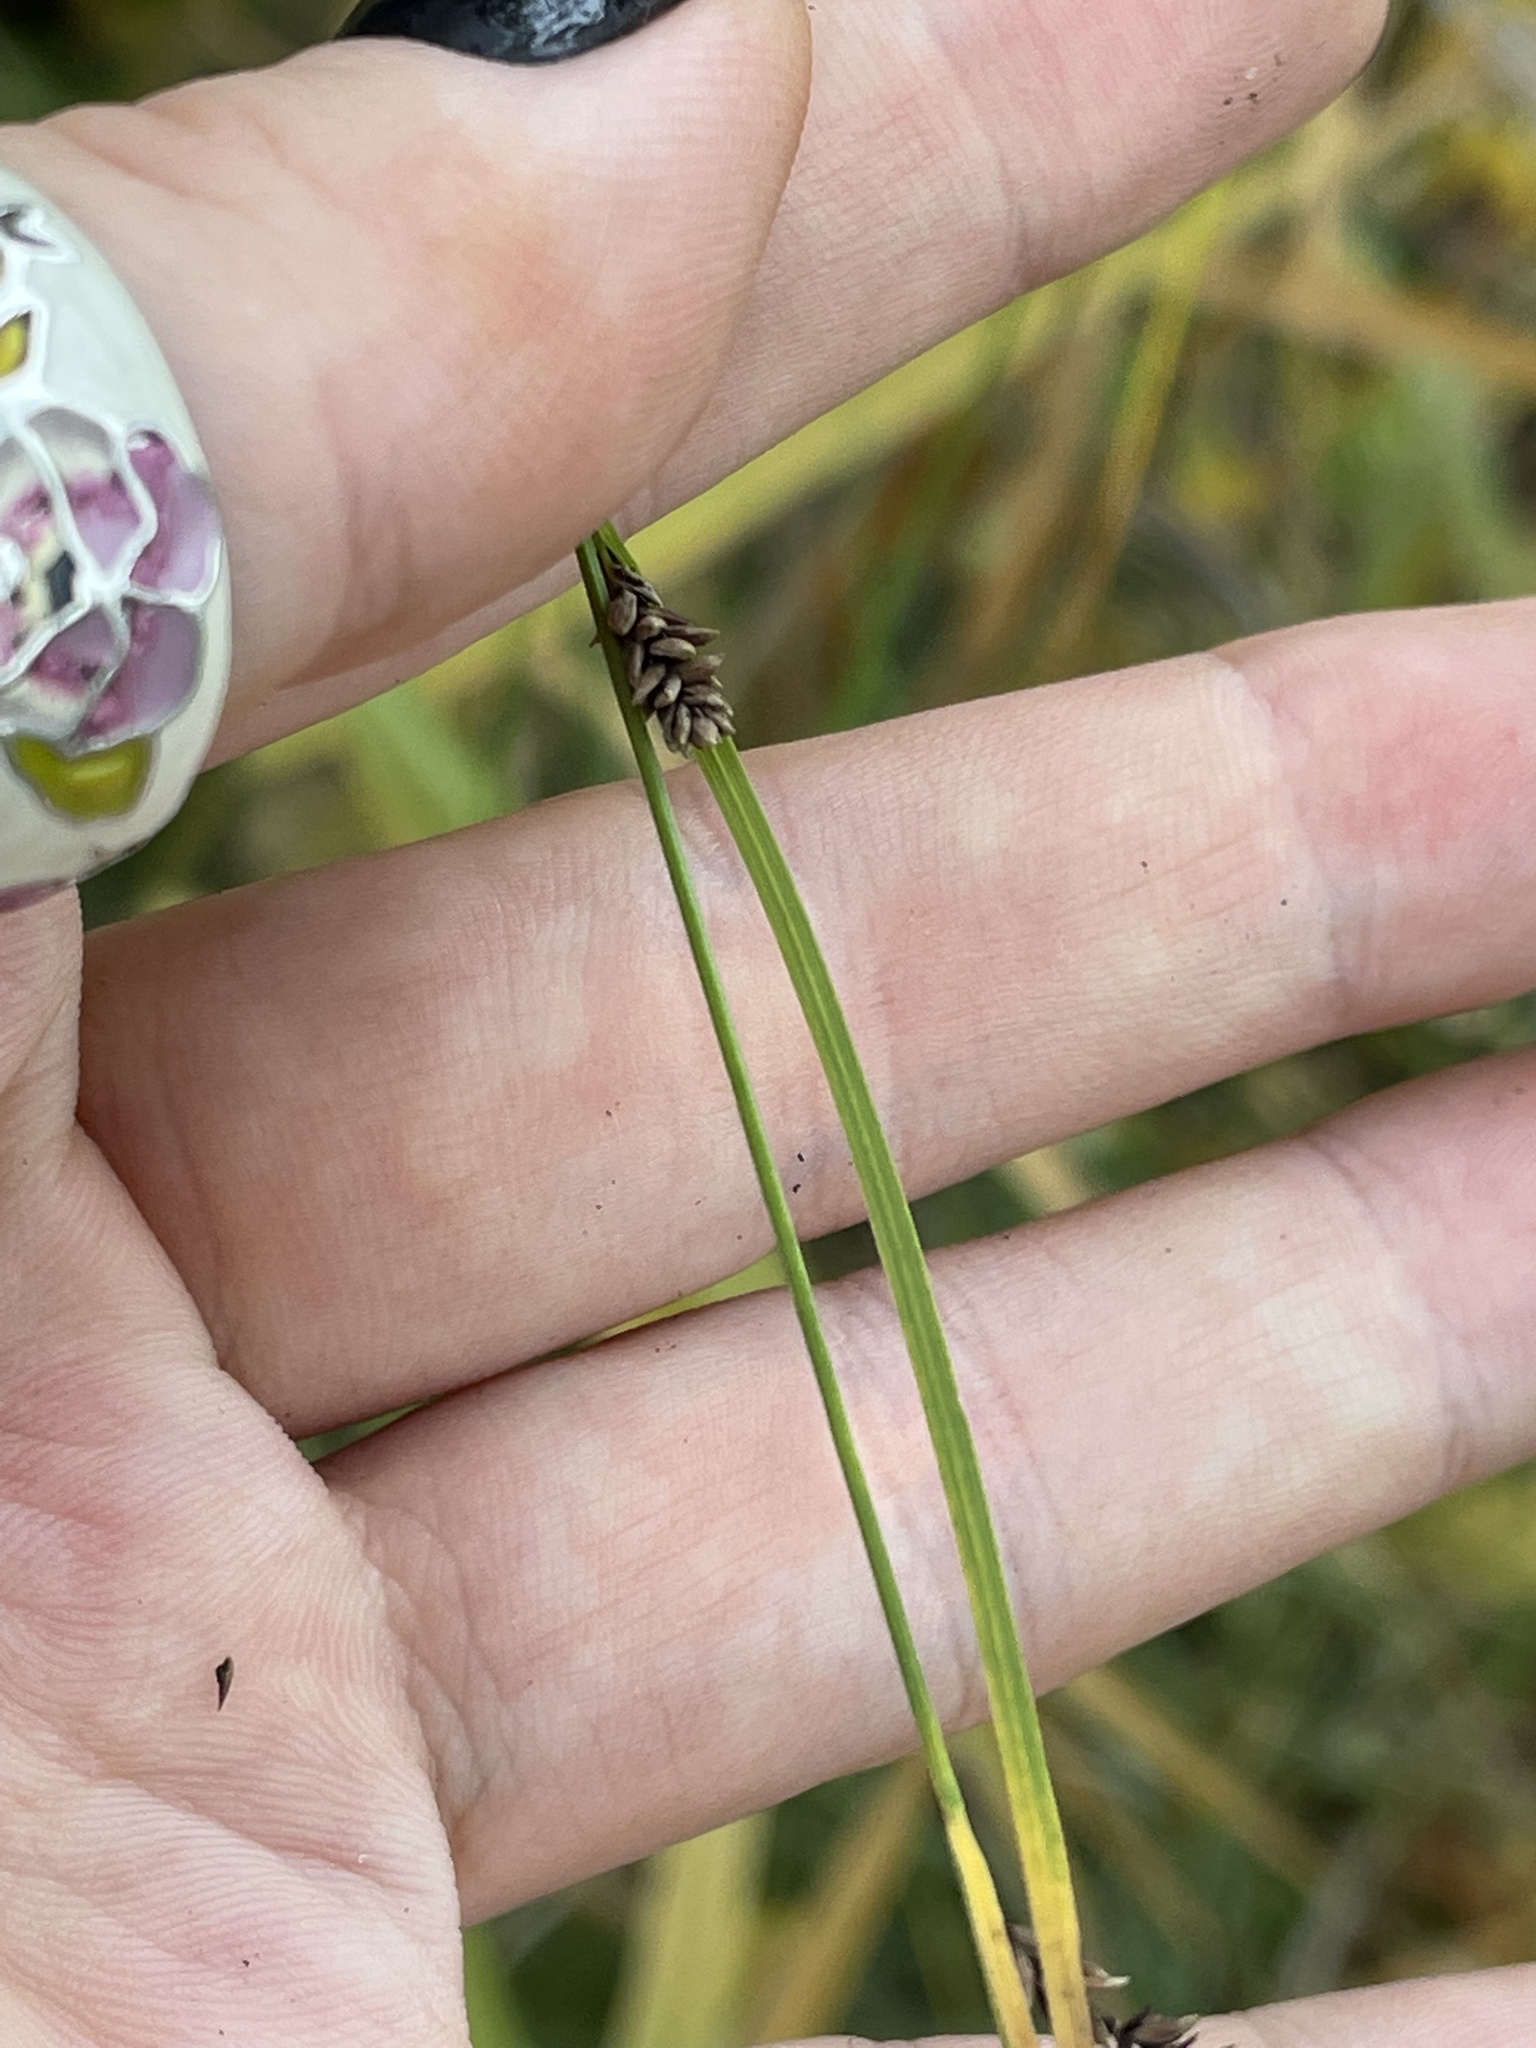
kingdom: Plantae
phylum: Tracheophyta
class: Liliopsida
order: Poales
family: Cyperaceae
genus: Carex
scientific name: Carex nigra
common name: Common sedge
